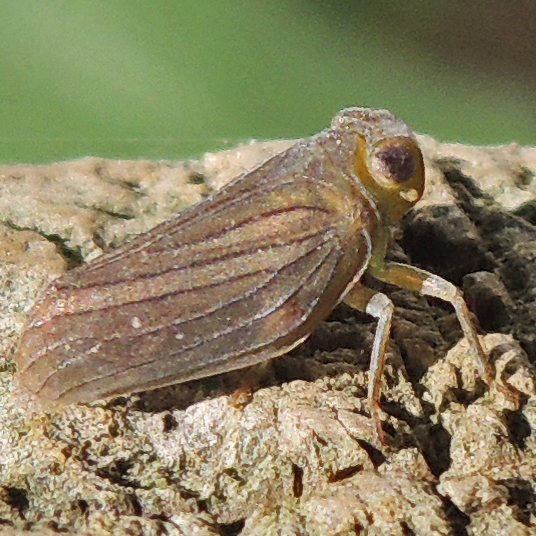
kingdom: Animalia
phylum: Arthropoda
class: Insecta
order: Hemiptera
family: Issidae
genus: Aplos
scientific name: Aplos simplex
